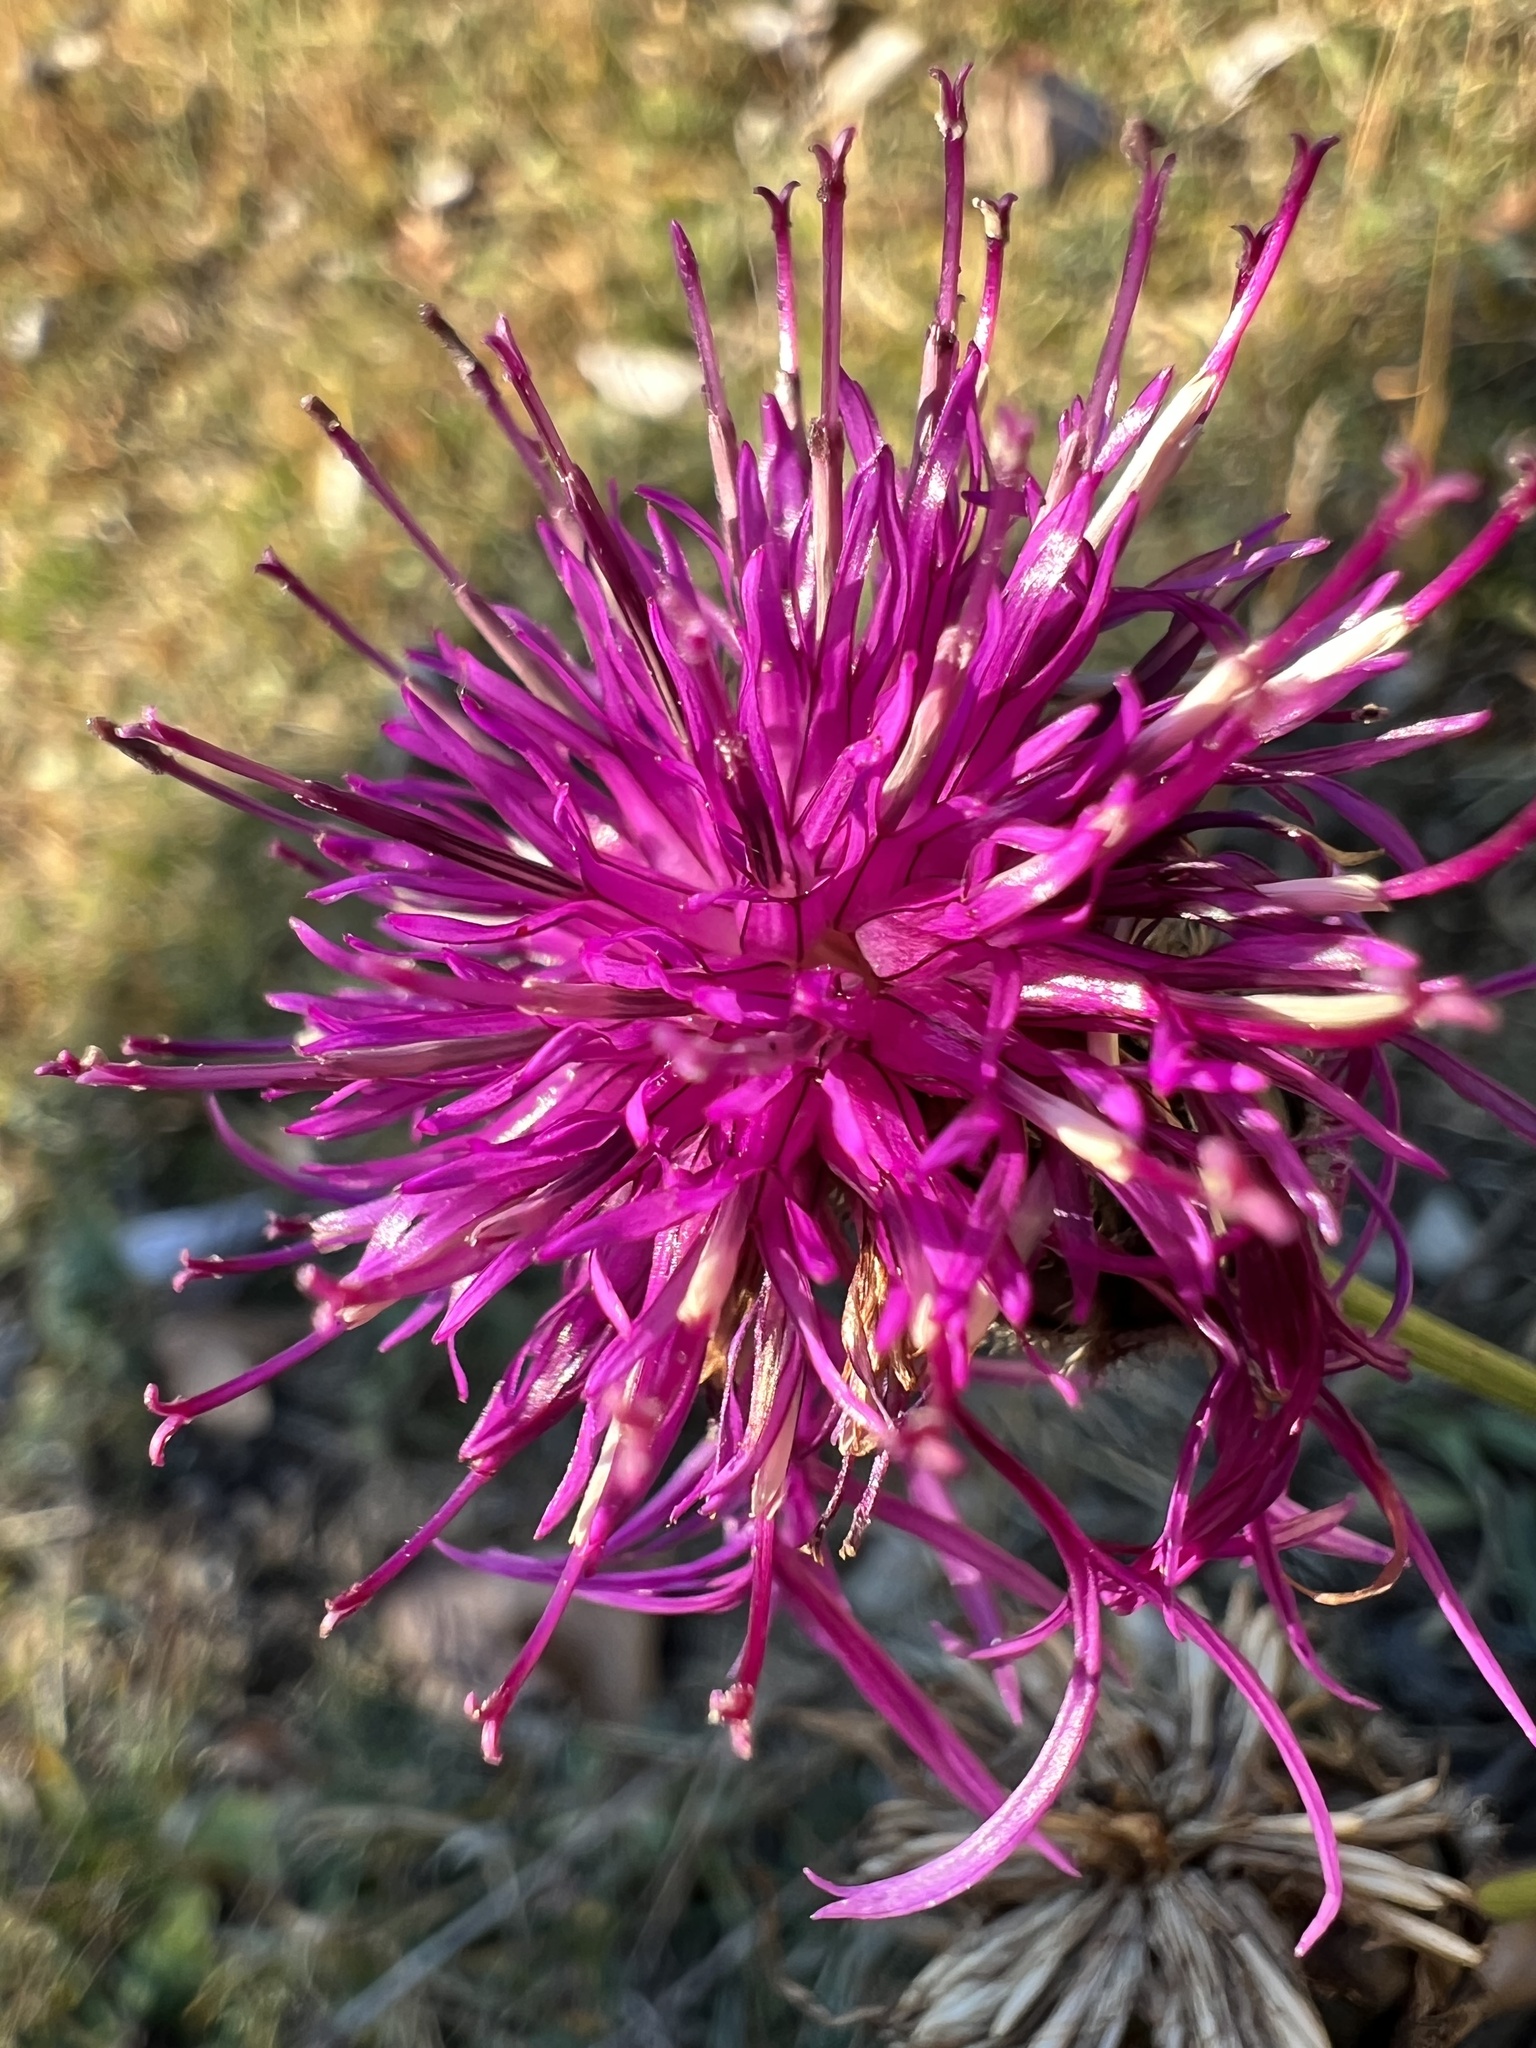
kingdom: Plantae
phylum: Tracheophyta
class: Magnoliopsida
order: Asterales
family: Asteraceae
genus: Centaurea
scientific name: Centaurea scabiosa
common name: Greater knapweed
